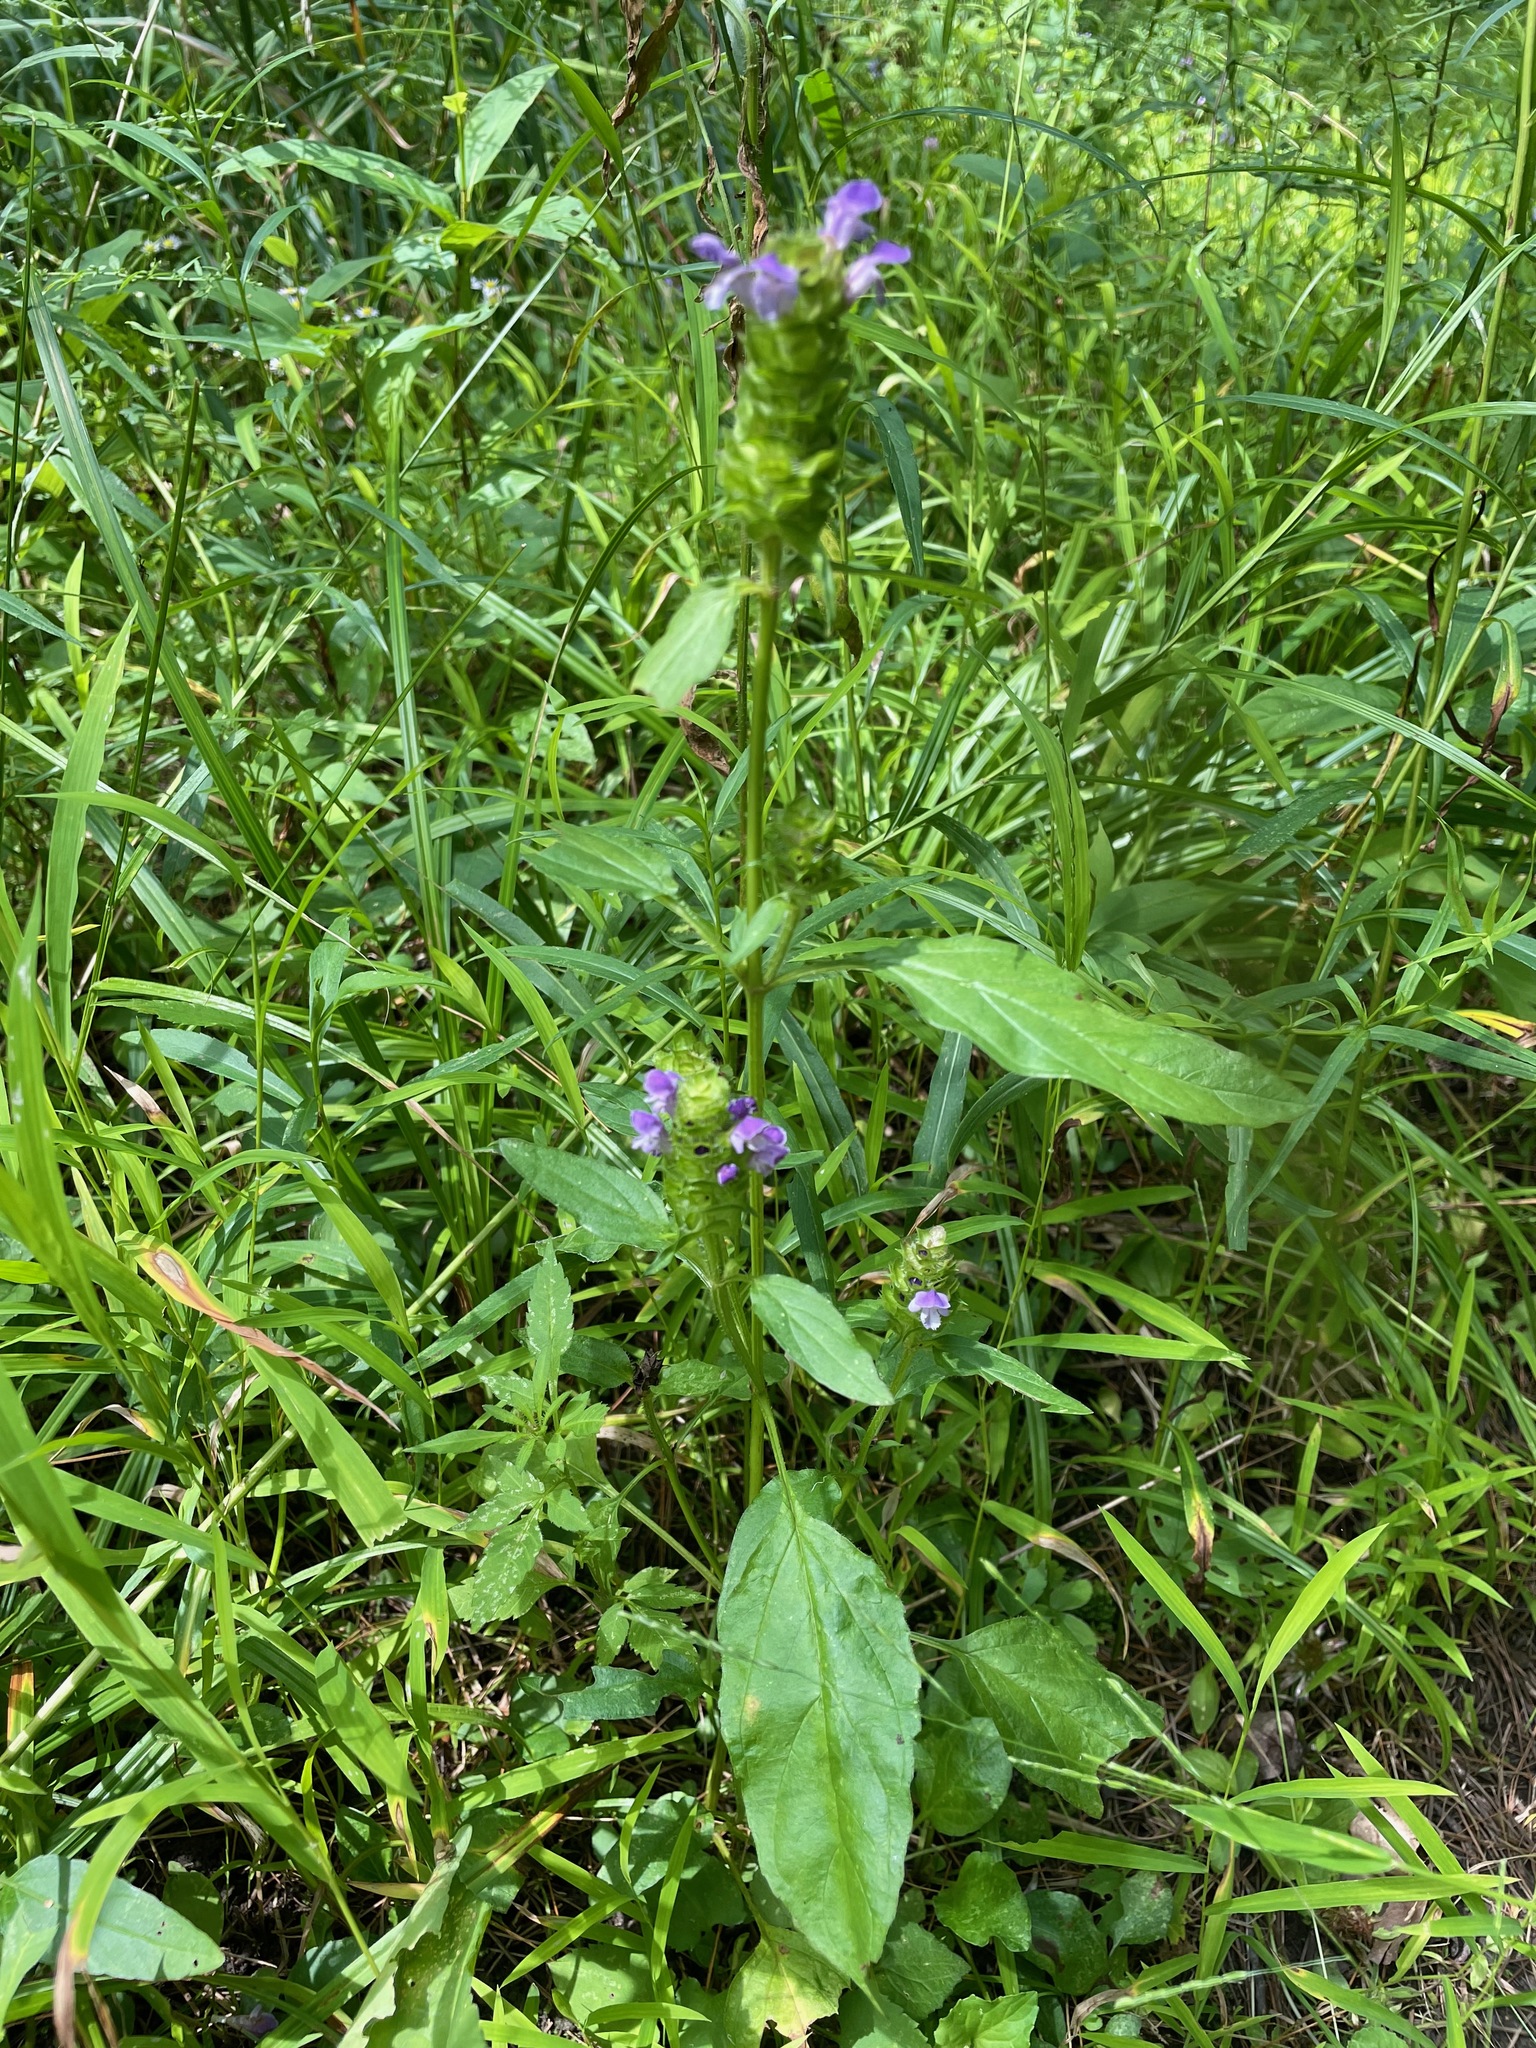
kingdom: Plantae
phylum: Tracheophyta
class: Magnoliopsida
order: Lamiales
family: Lamiaceae
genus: Prunella
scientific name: Prunella vulgaris
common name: Heal-all
